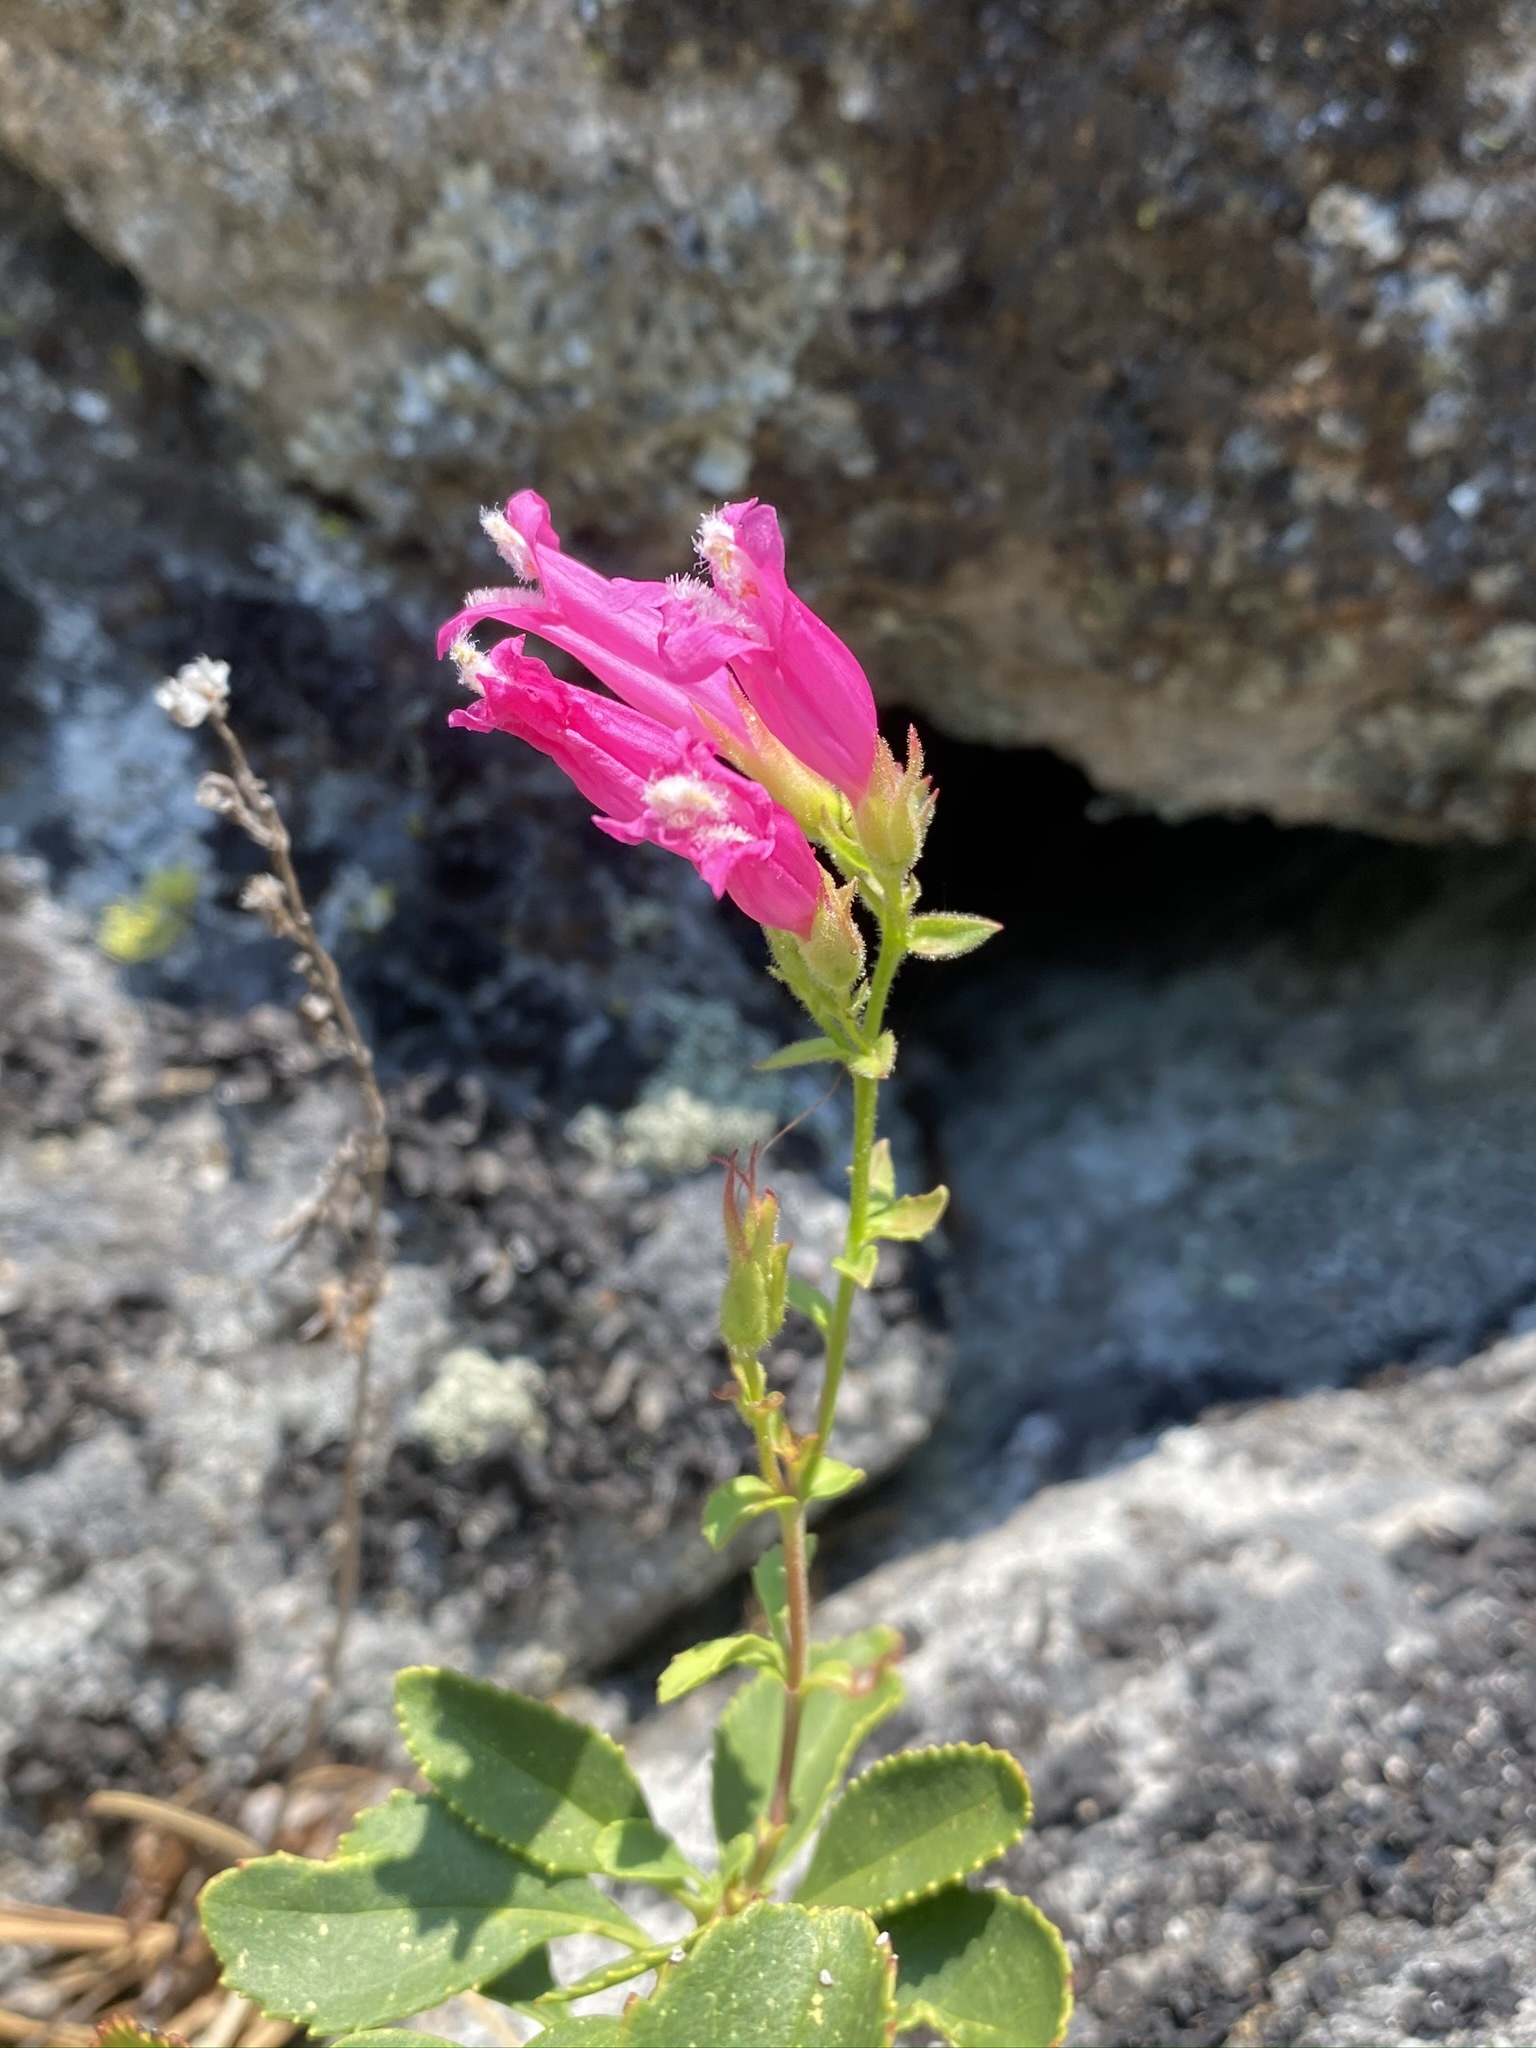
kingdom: Plantae
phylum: Tracheophyta
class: Magnoliopsida
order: Lamiales
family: Plantaginaceae
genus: Penstemon
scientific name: Penstemon newberryi
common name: Mountain-pride
